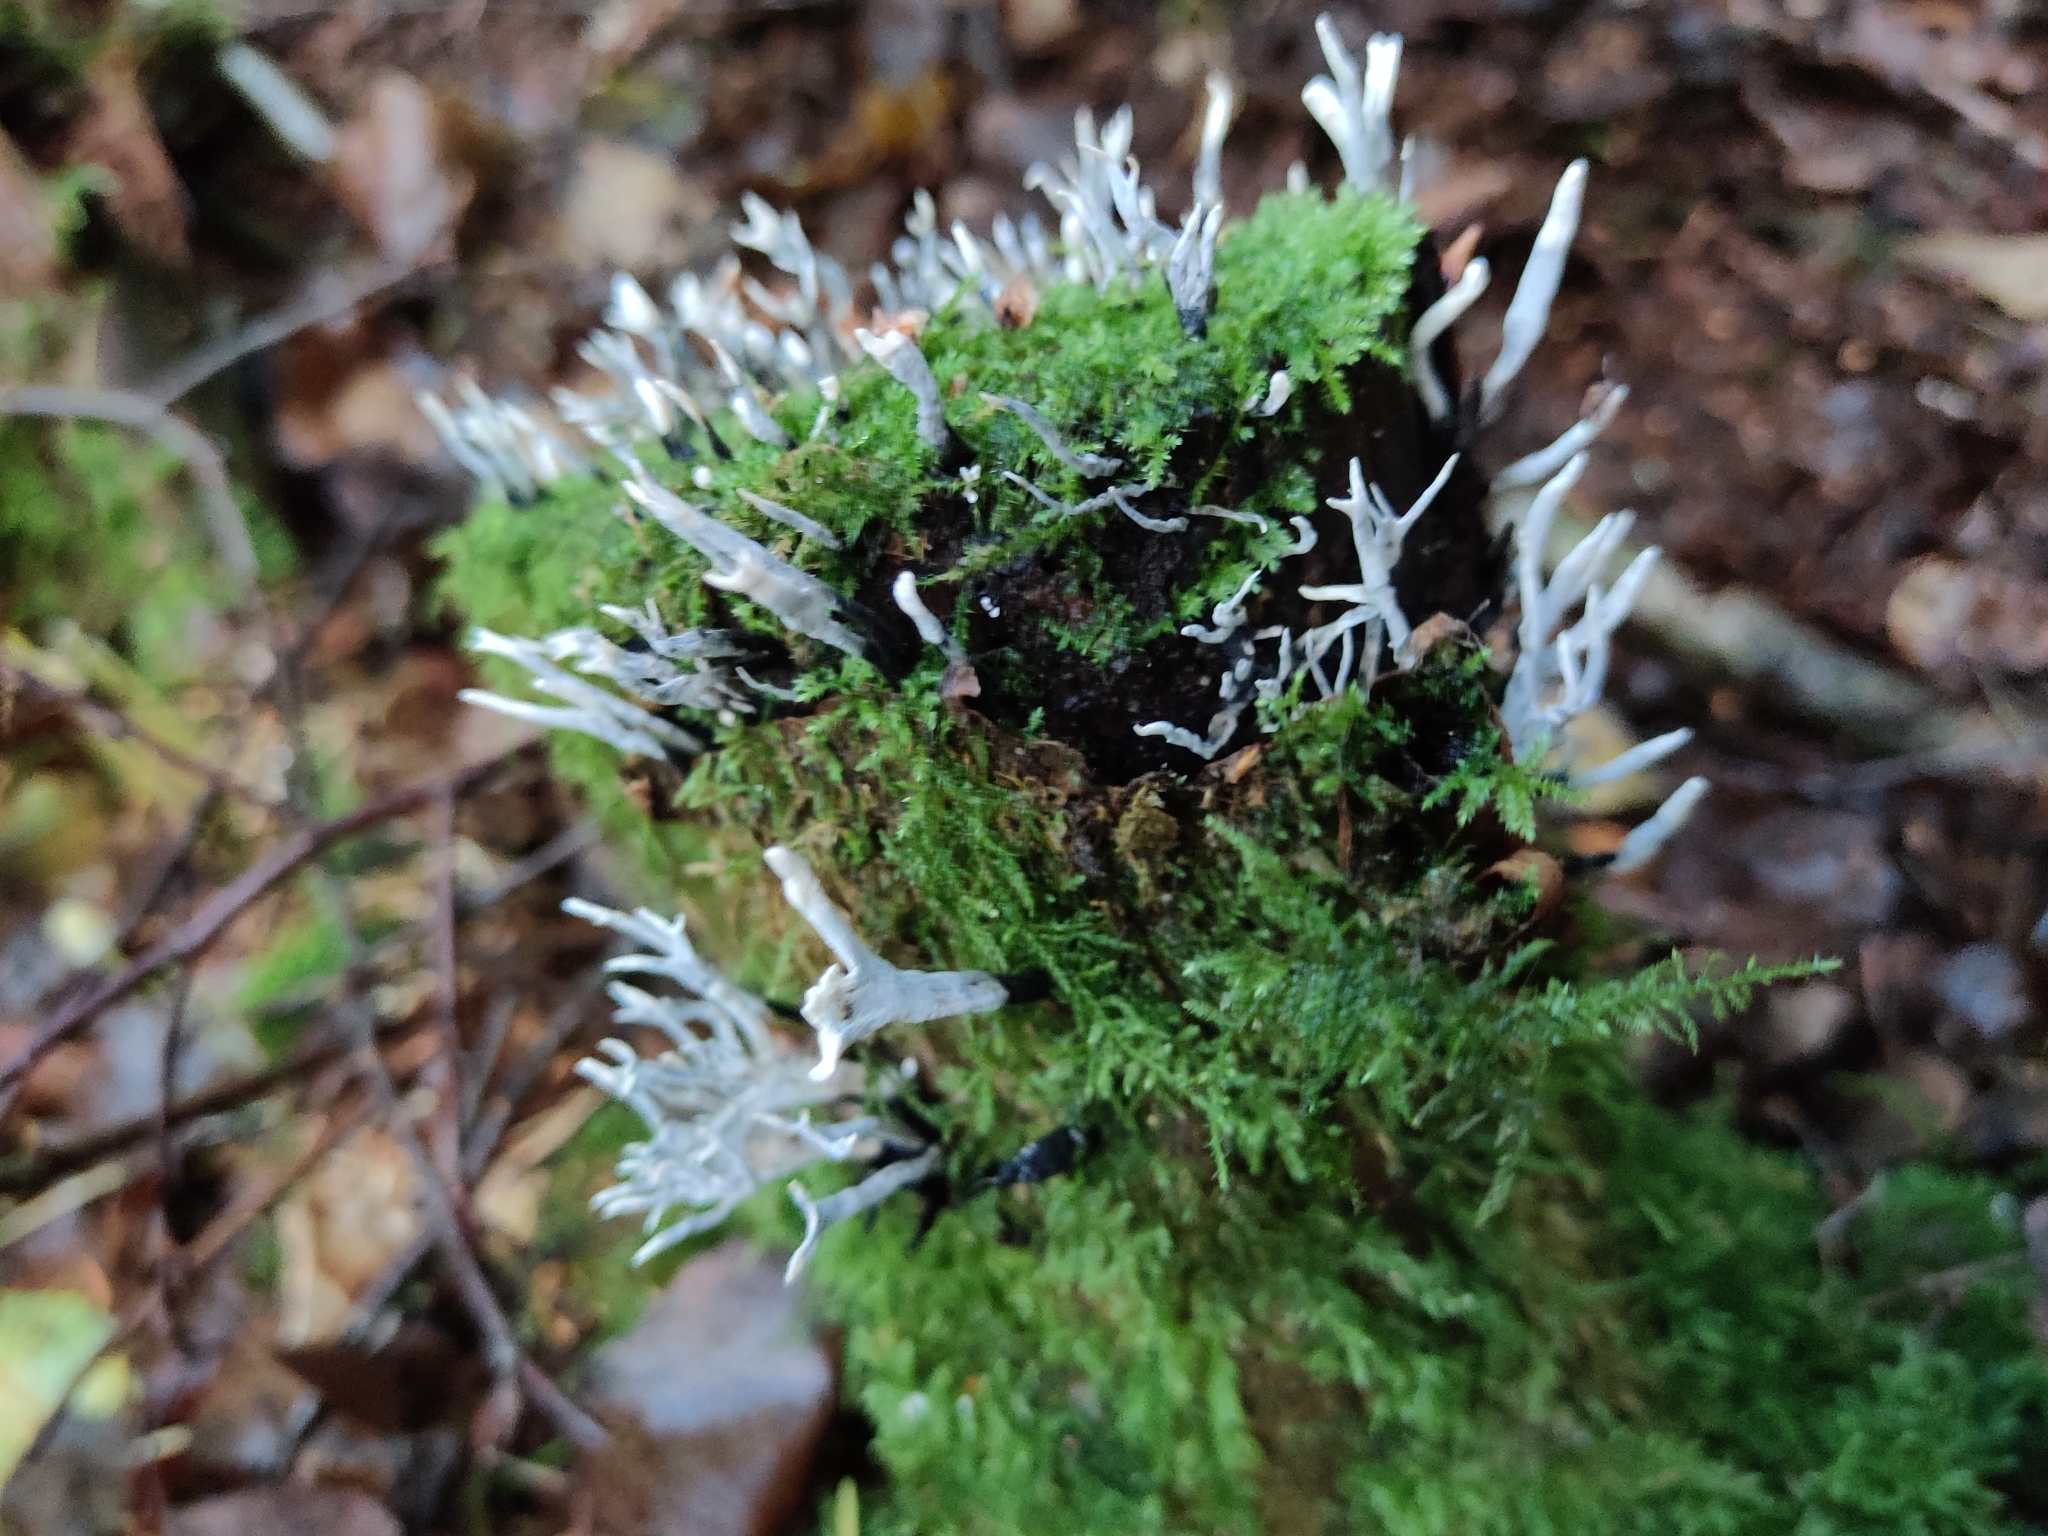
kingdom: Fungi
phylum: Ascomycota
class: Sordariomycetes
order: Xylariales
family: Xylariaceae
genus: Xylaria
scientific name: Xylaria hypoxylon
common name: Candle-snuff fungus
